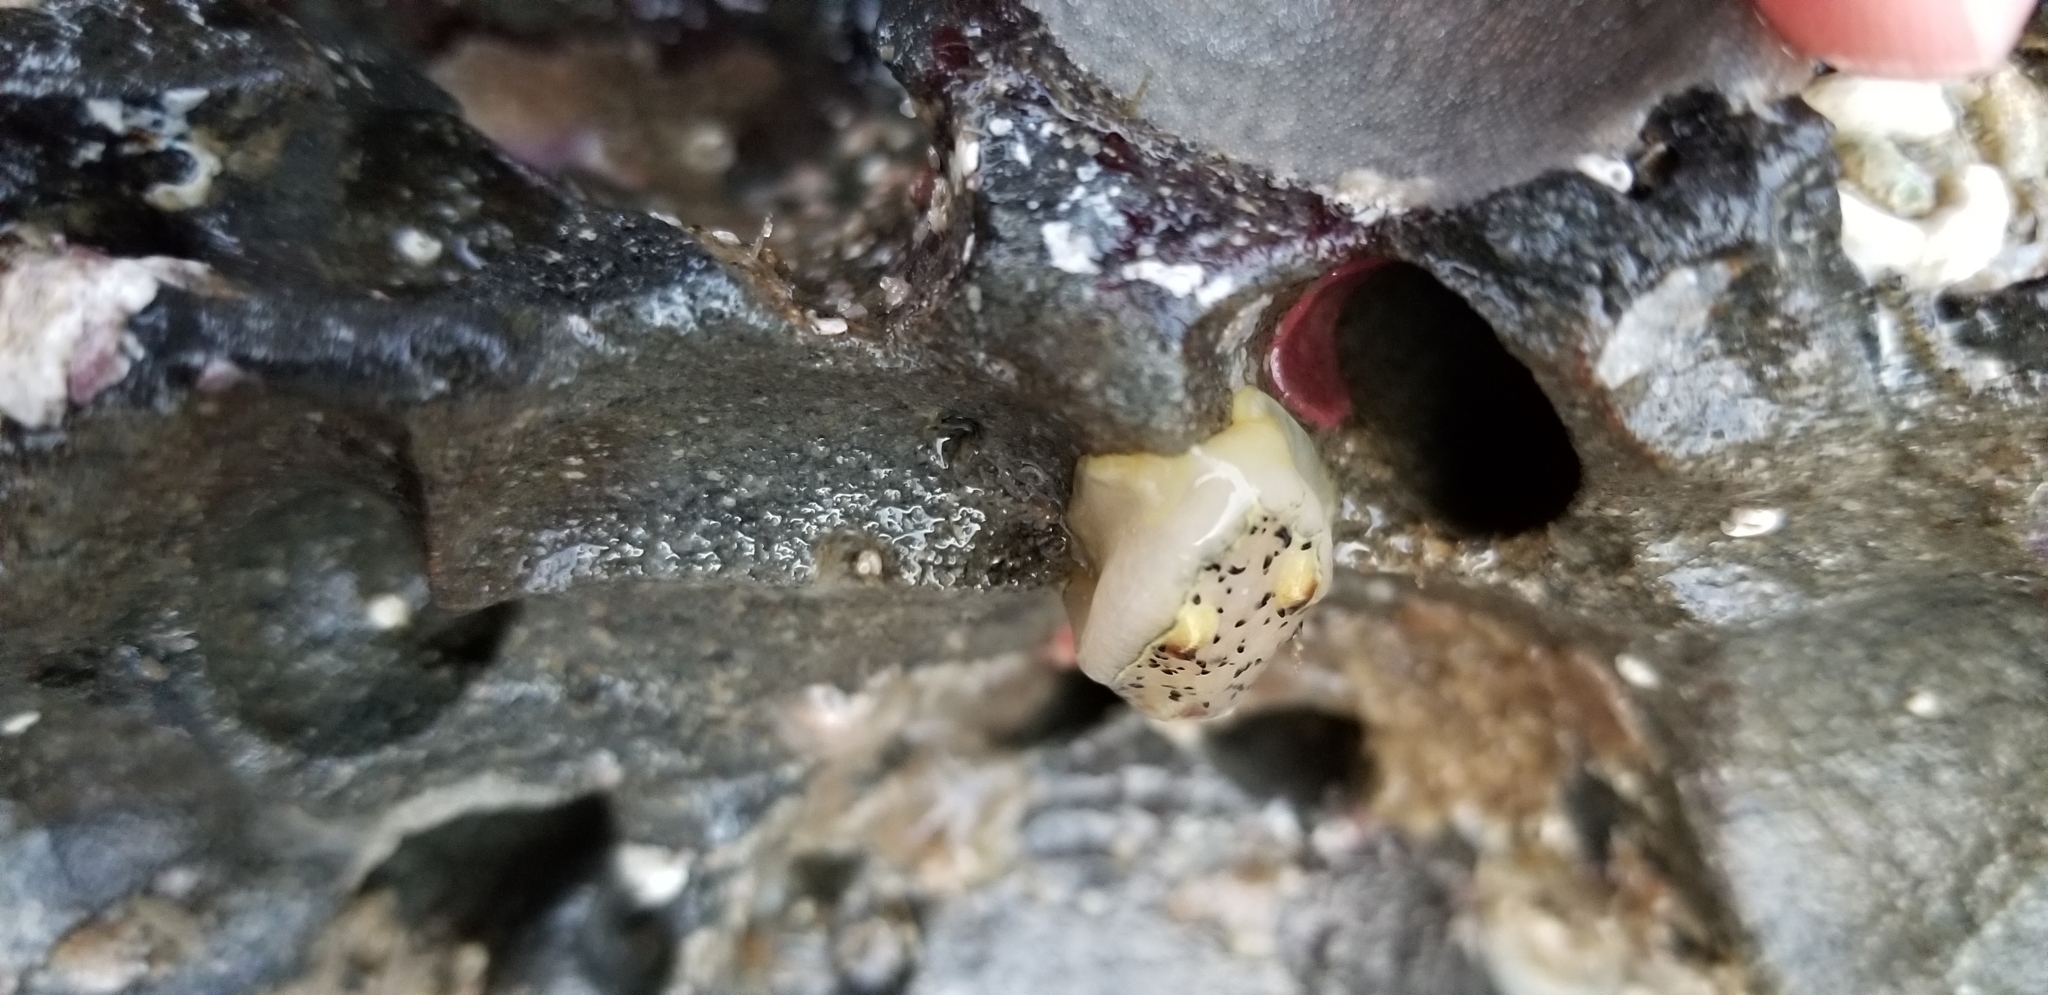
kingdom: Animalia
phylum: Mollusca
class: Gastropoda
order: Nudibranchia
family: Onchidorididae
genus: Acanthodoris
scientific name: Acanthodoris rhodoceras
